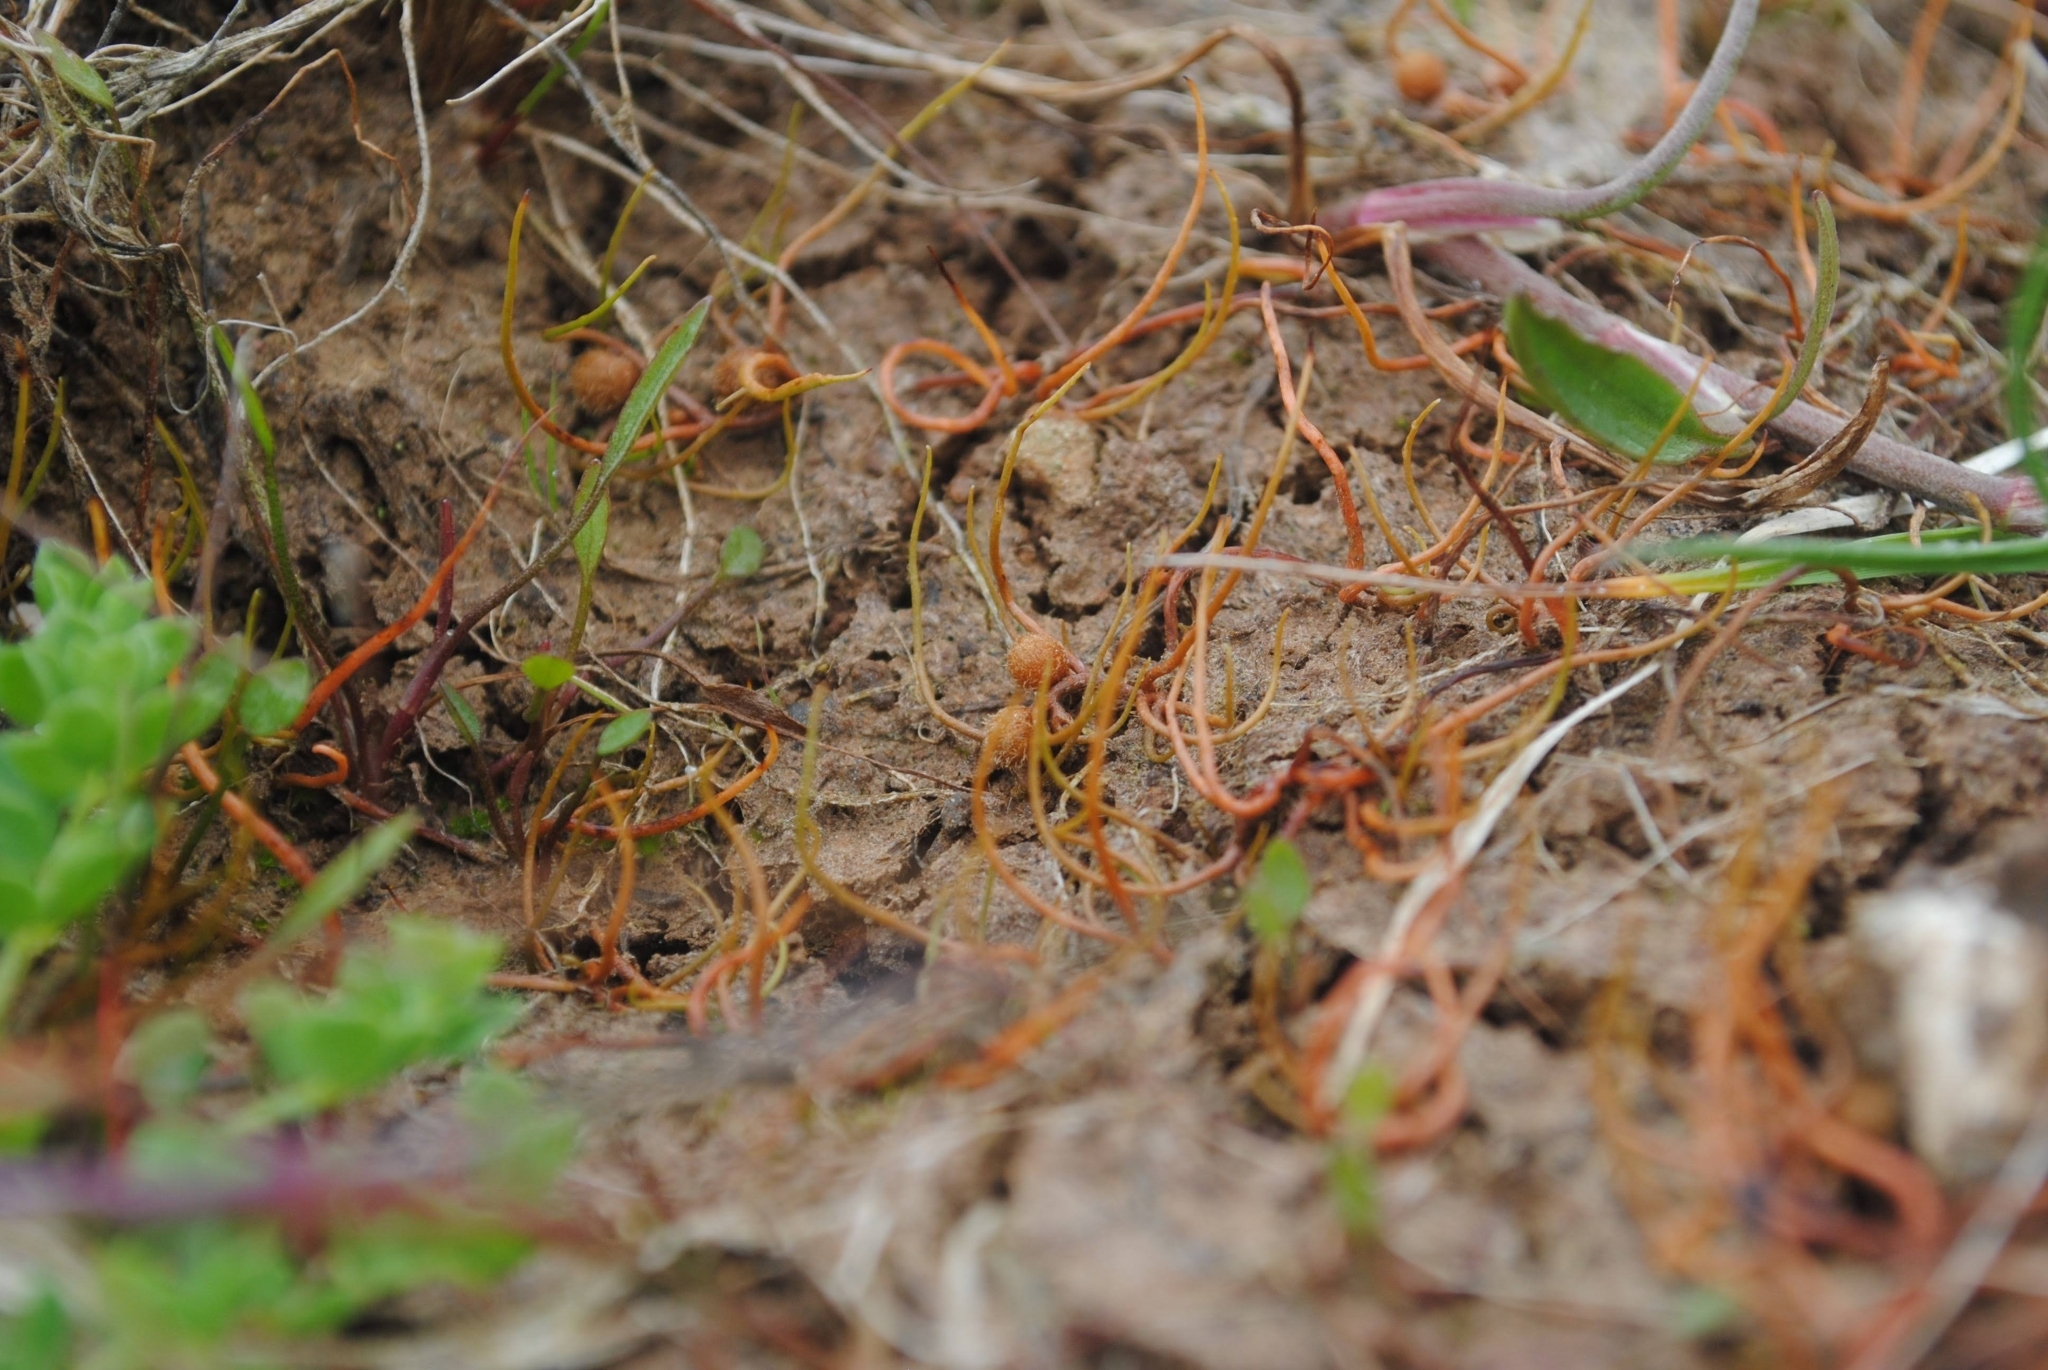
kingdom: Plantae
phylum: Tracheophyta
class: Polypodiopsida
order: Salviniales
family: Marsileaceae
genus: Pilularia
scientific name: Pilularia globulifera
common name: Pillwort
